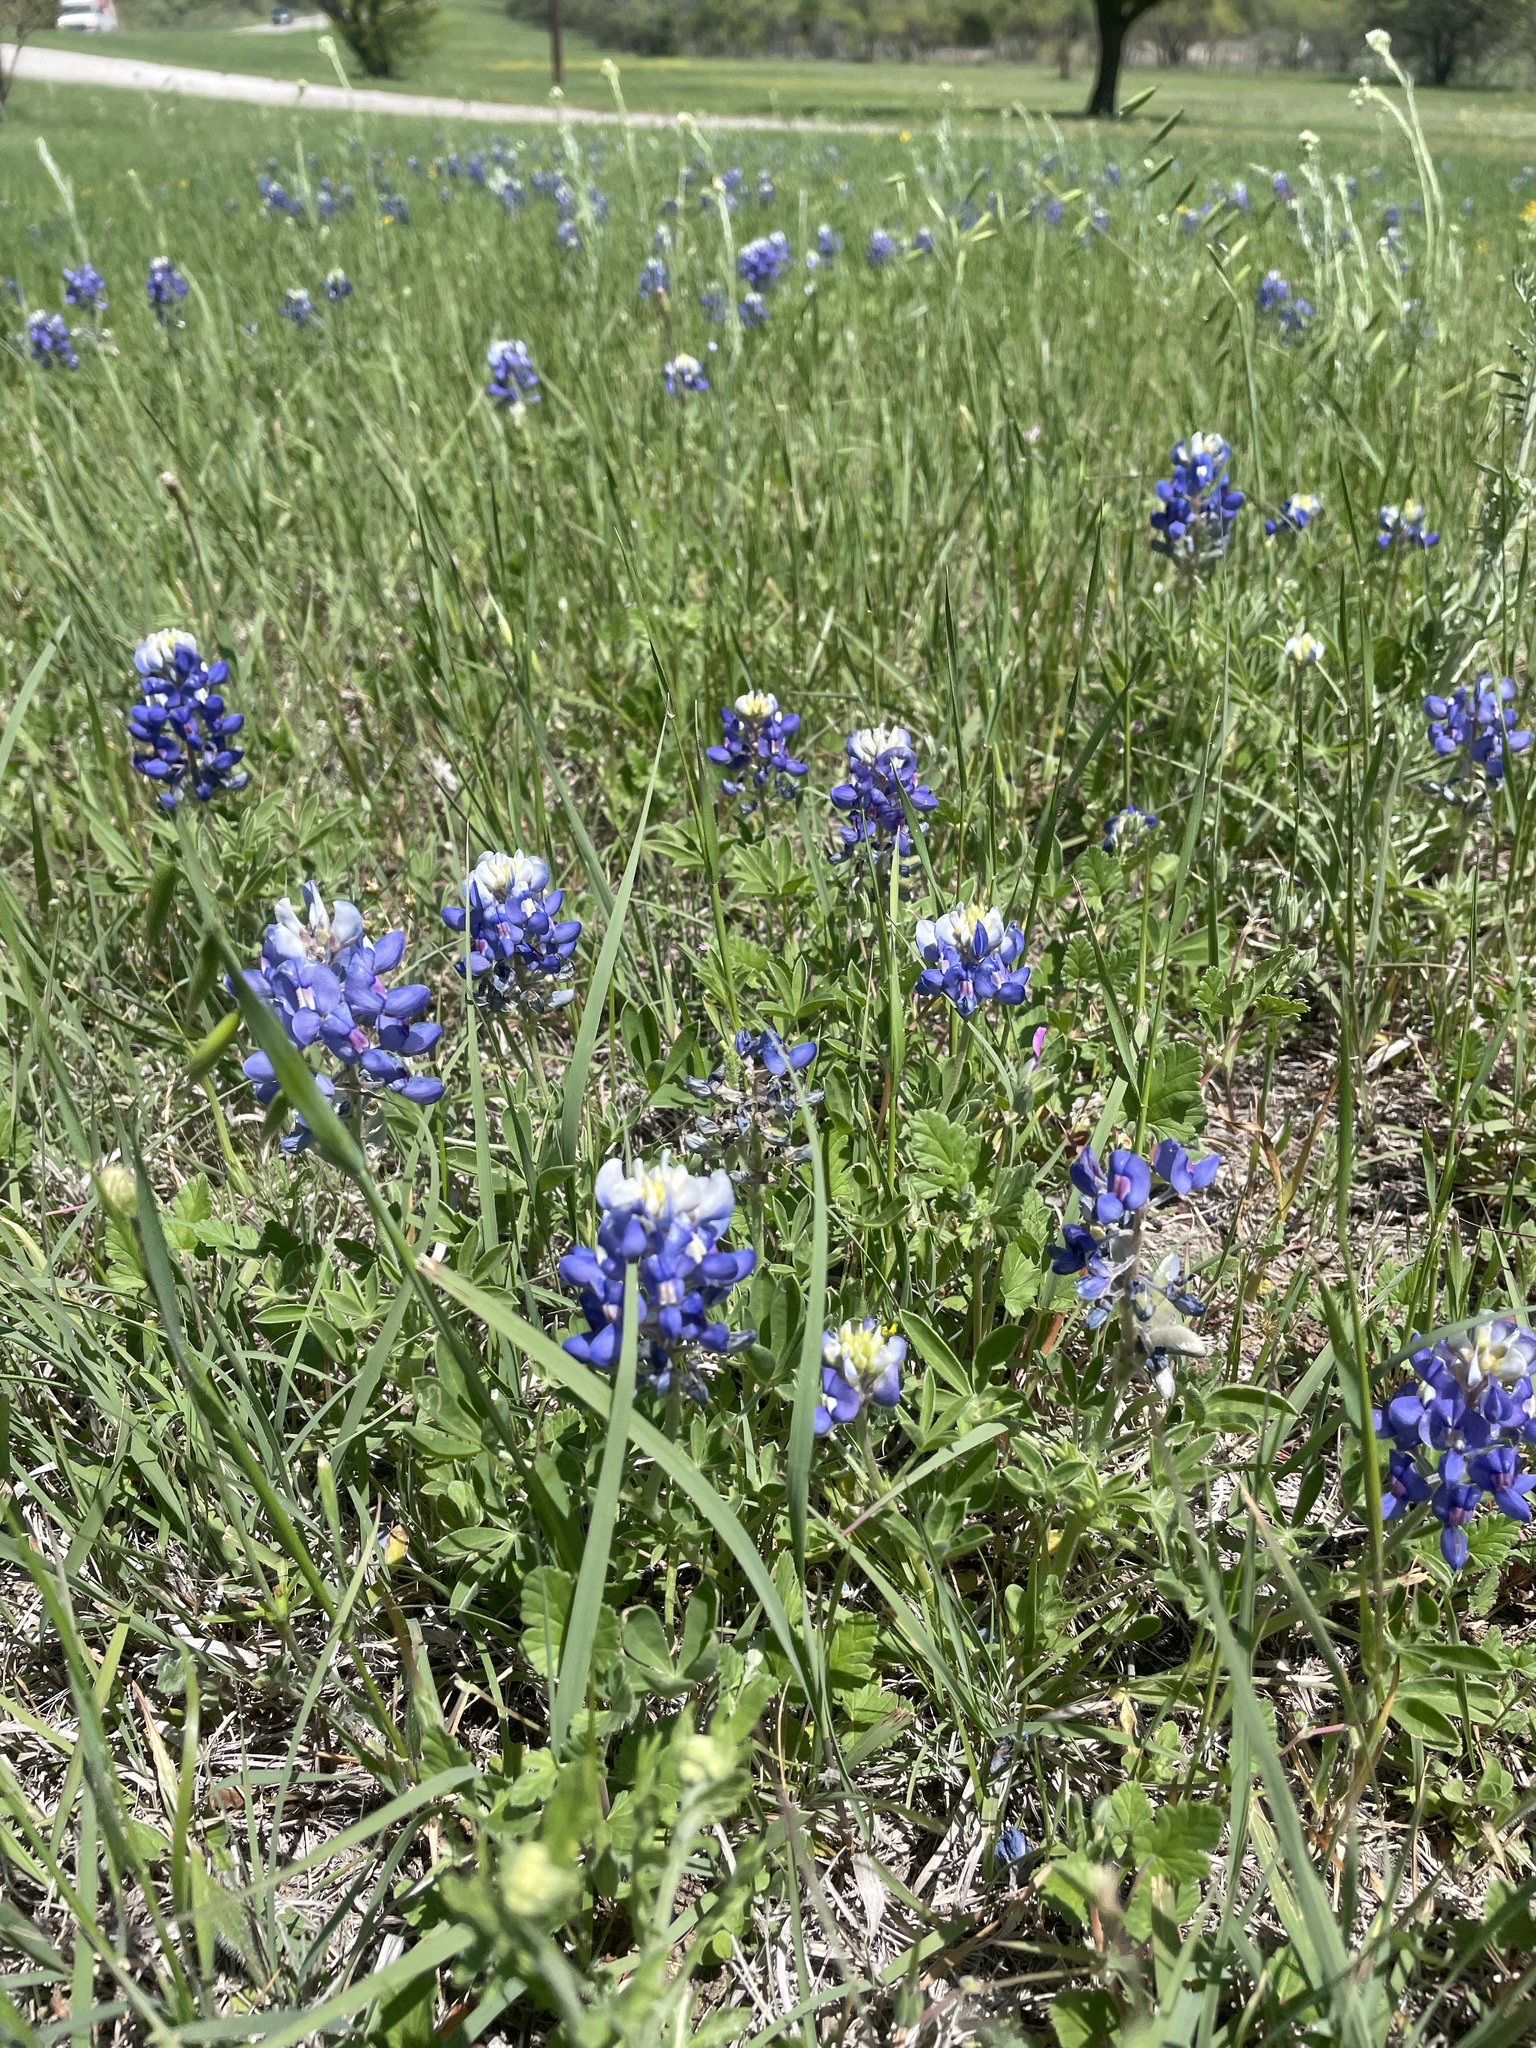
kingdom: Plantae
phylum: Tracheophyta
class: Magnoliopsida
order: Fabales
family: Fabaceae
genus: Lupinus
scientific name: Lupinus texensis
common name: Texas bluebonnet
